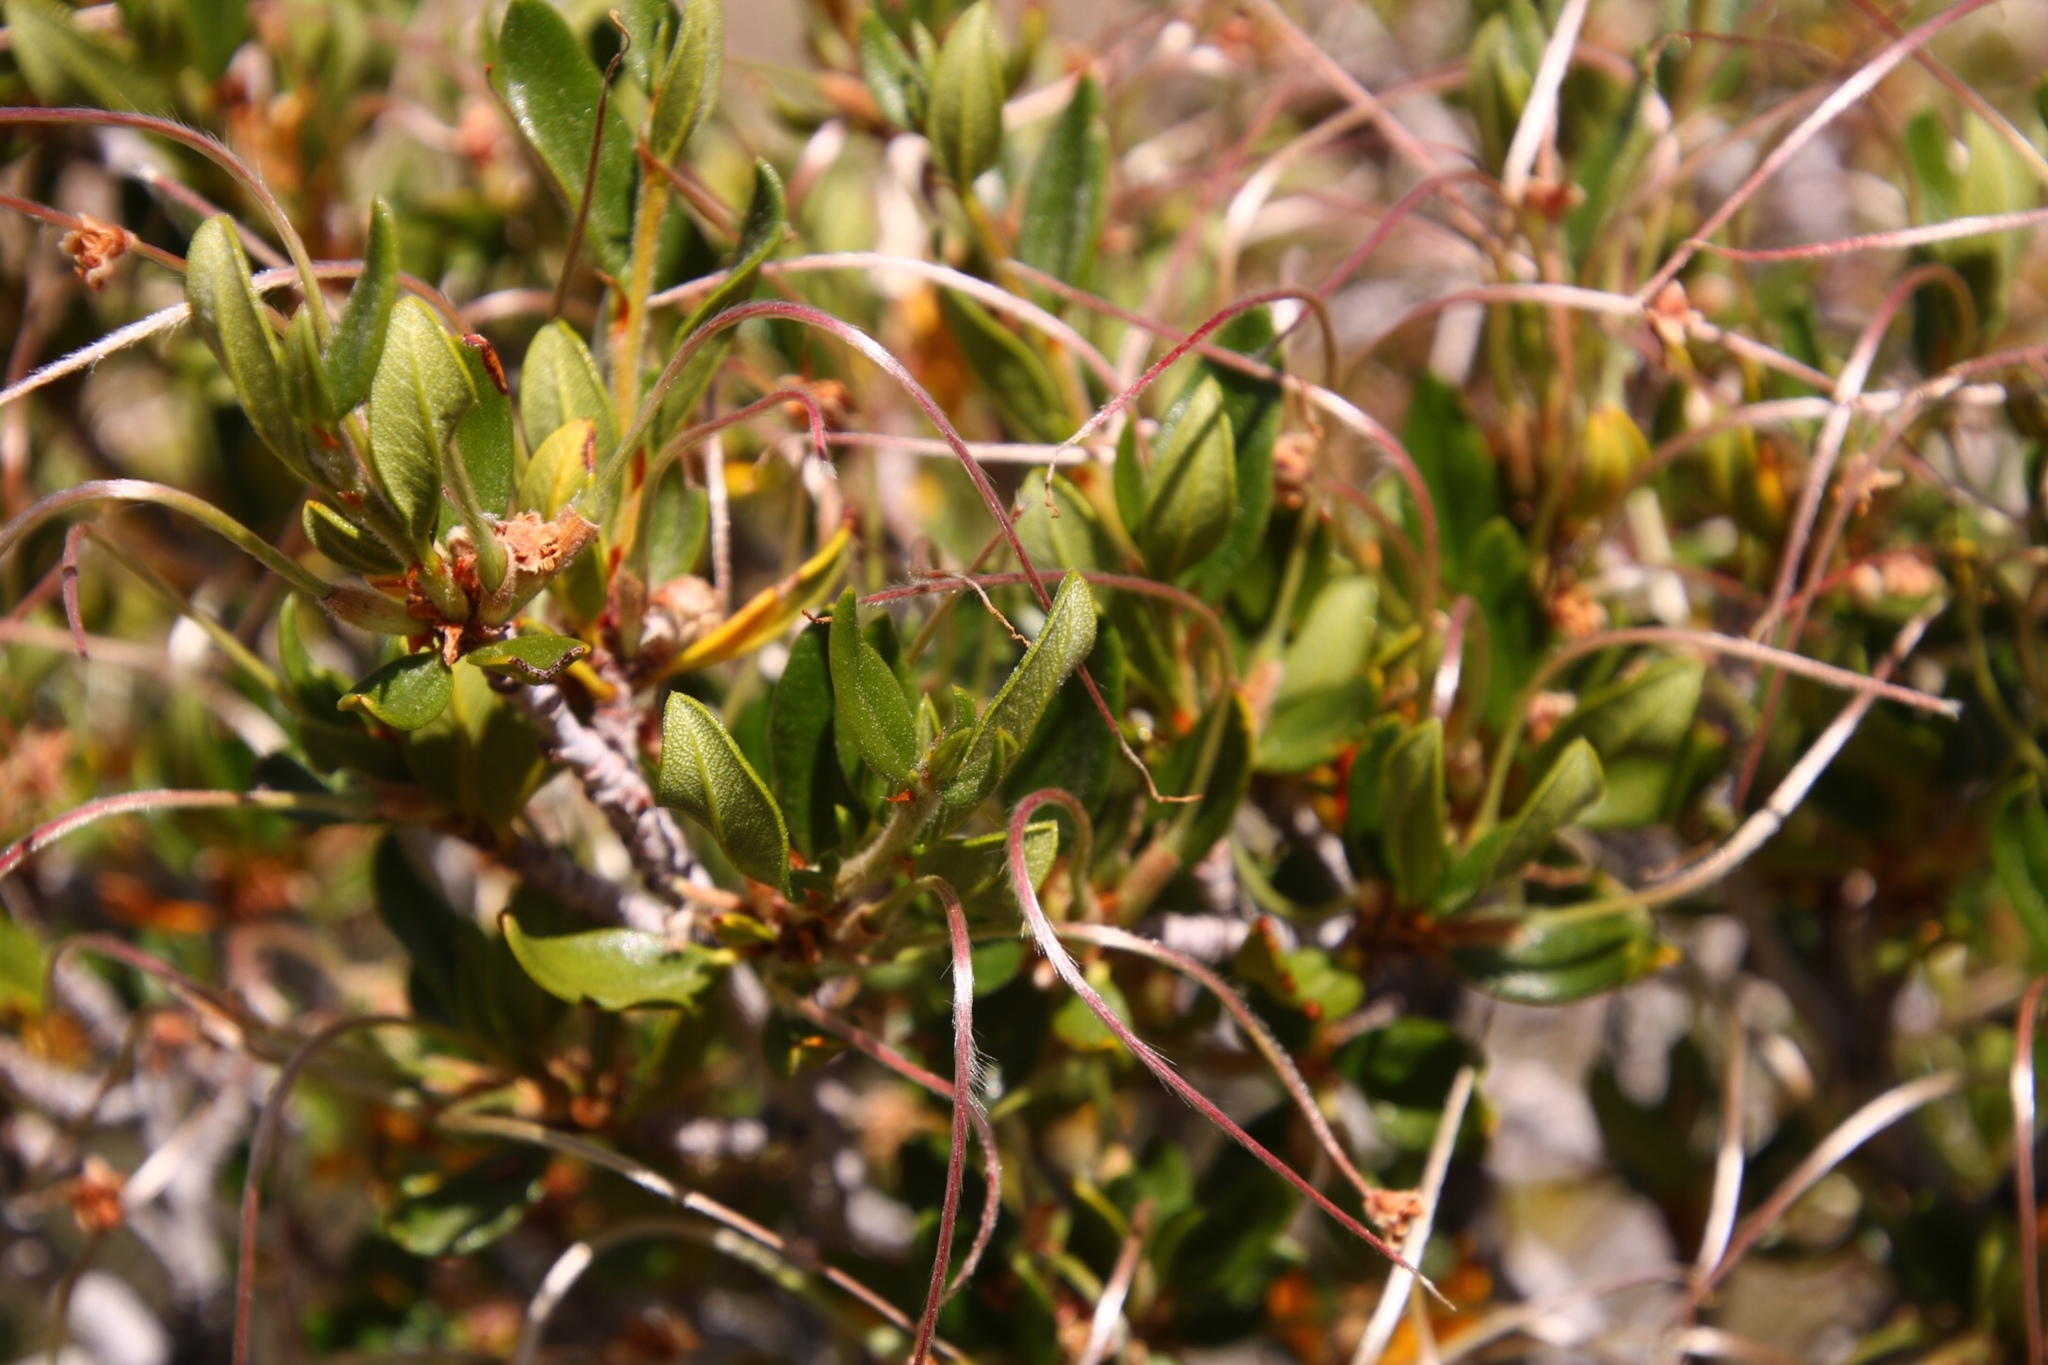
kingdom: Plantae
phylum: Tracheophyta
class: Magnoliopsida
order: Rosales
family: Rosaceae
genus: Cercocarpus
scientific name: Cercocarpus ledifolius
